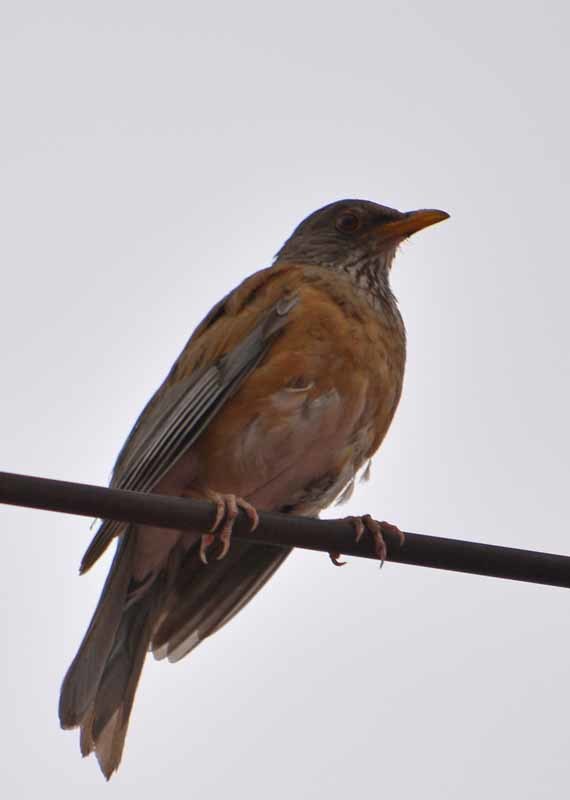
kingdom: Animalia
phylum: Chordata
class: Aves
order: Passeriformes
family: Turdidae
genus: Turdus
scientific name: Turdus rufopalliatus
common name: Rufous-backed robin
